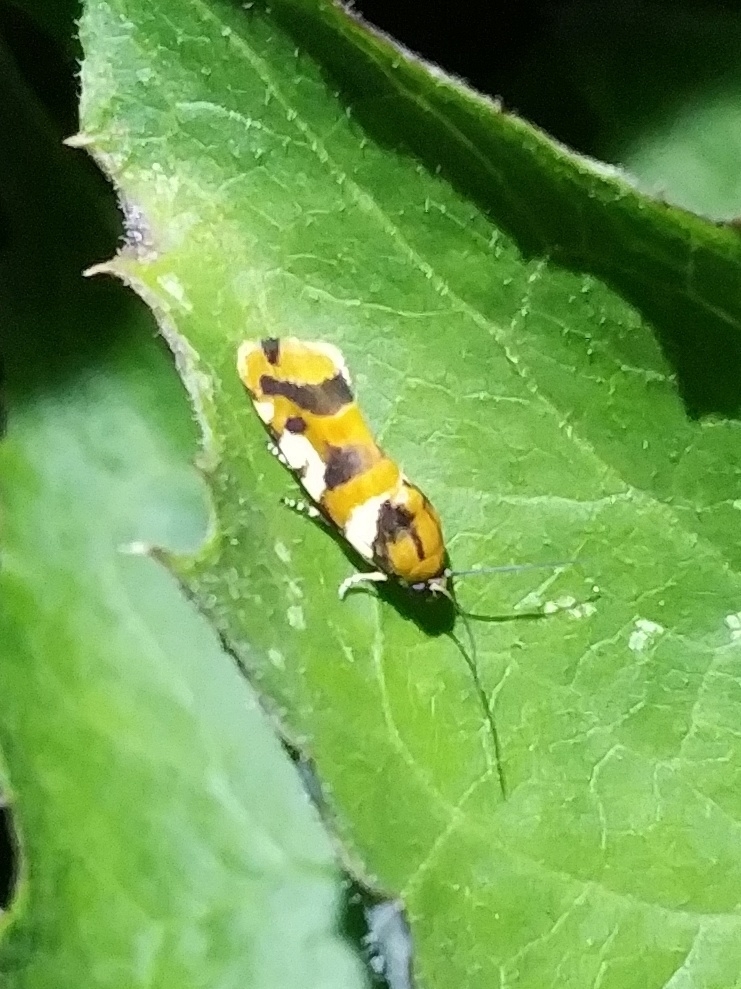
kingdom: Animalia
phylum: Arthropoda
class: Insecta
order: Lepidoptera
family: Noctuidae
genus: Acontia
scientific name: Acontia dama
